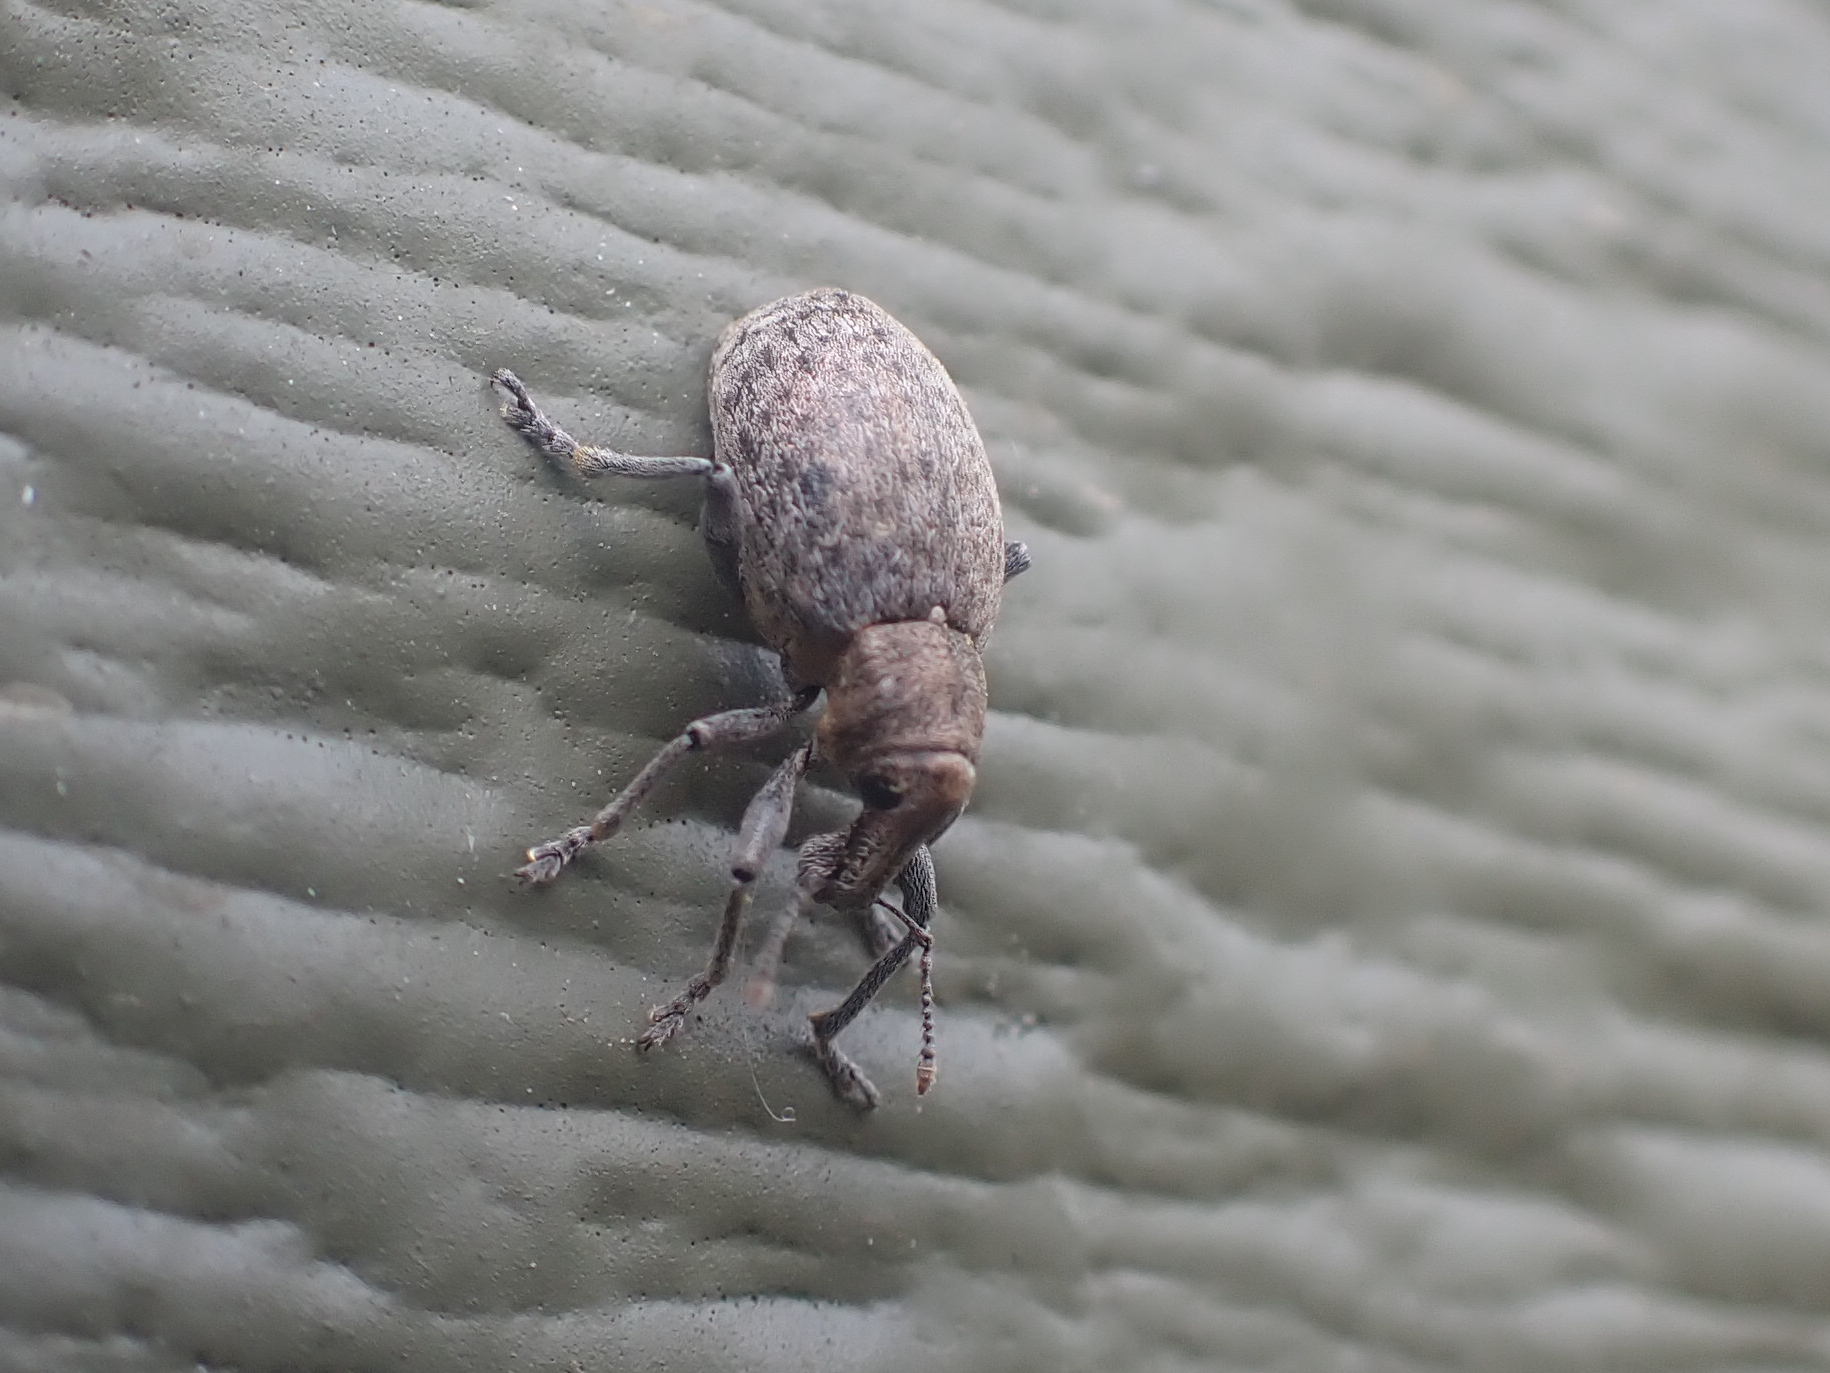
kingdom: Animalia
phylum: Arthropoda
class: Insecta
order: Coleoptera
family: Curculionidae
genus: Trichalophus
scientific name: Trichalophus alternatus
